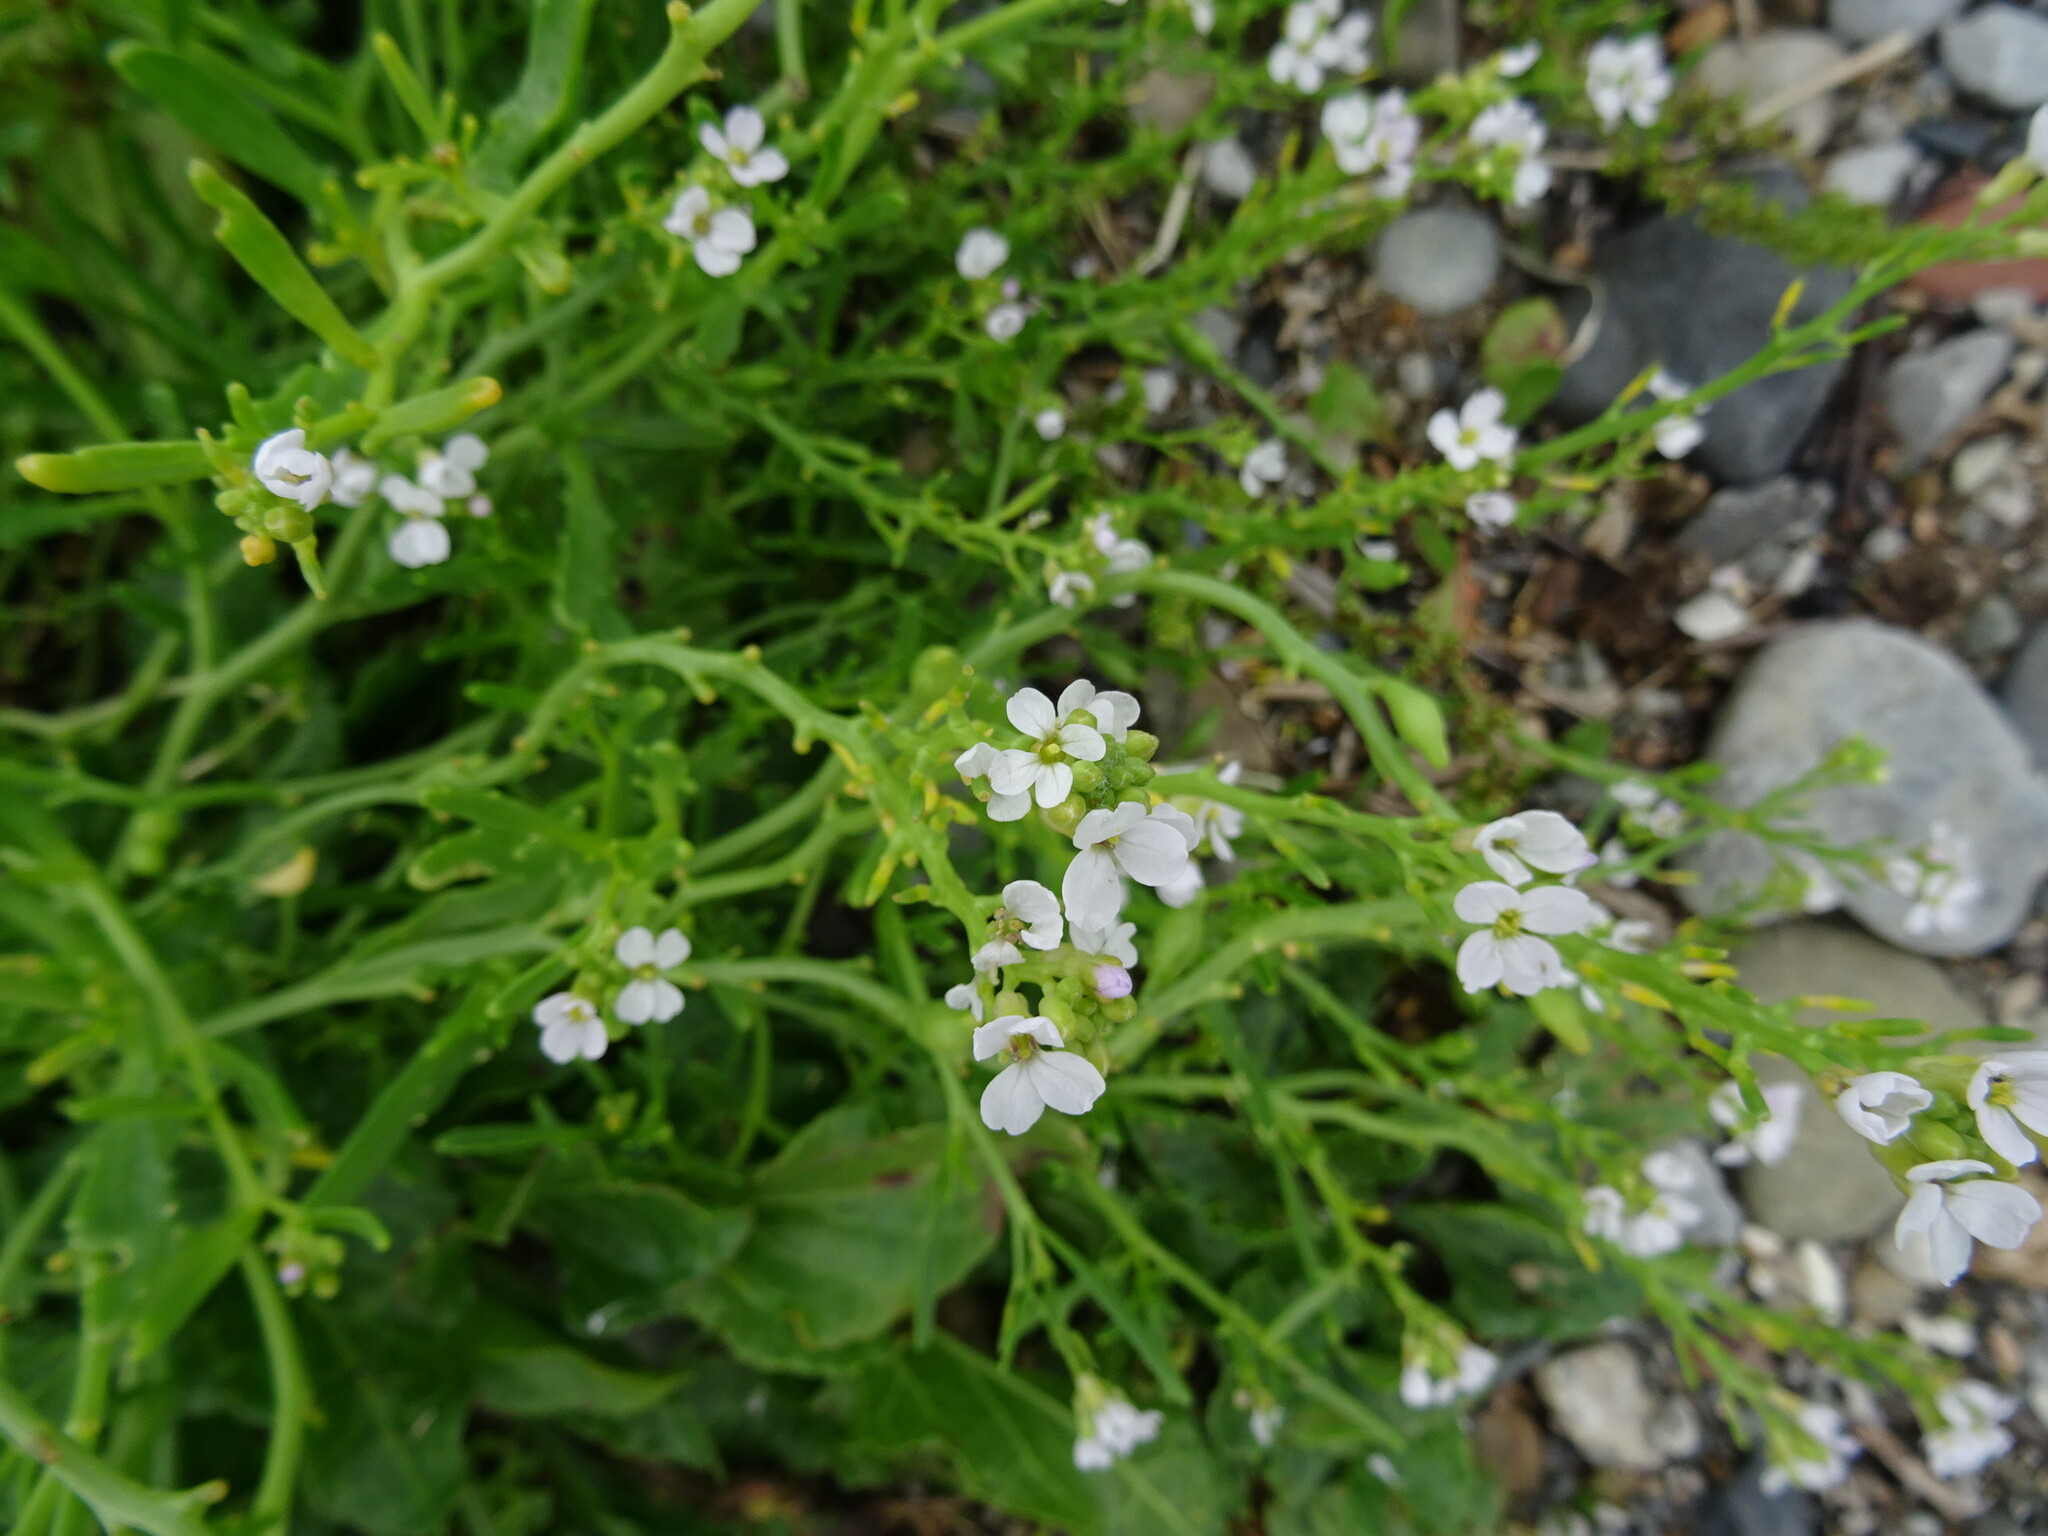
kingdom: Plantae
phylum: Tracheophyta
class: Magnoliopsida
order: Brassicales
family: Brassicaceae
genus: Cakile
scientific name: Cakile maritima
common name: Sea rocket
